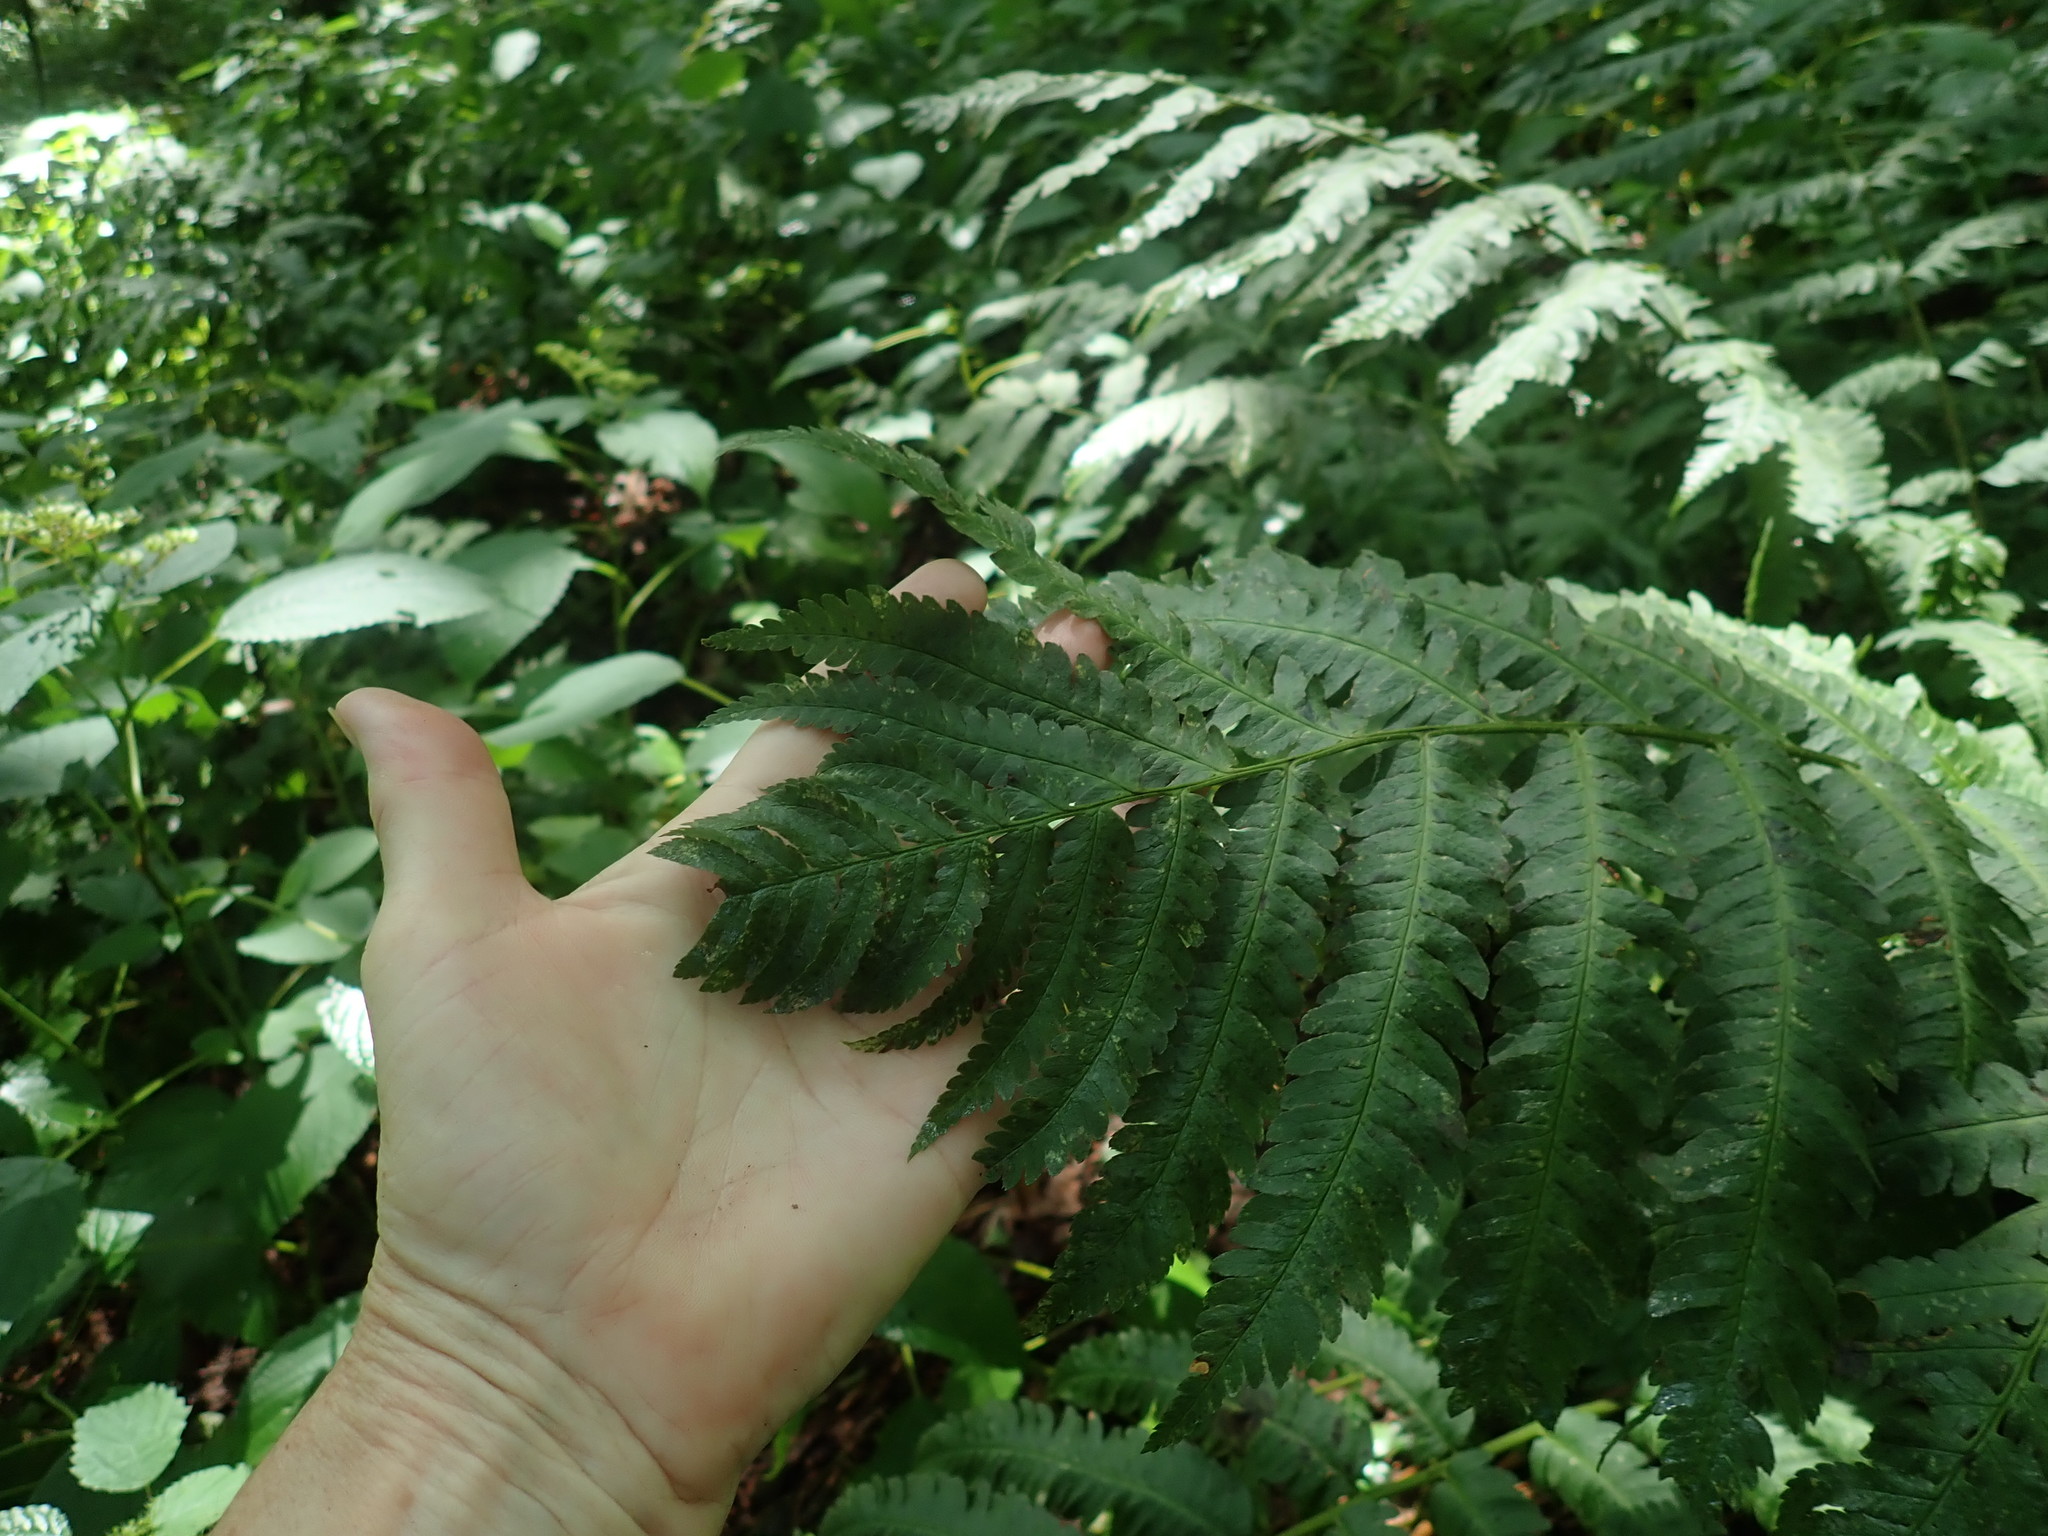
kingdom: Plantae
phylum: Tracheophyta
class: Polypodiopsida
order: Polypodiales
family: Dryopteridaceae
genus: Dryopteris
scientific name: Dryopteris goldieana
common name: Goldie's fern
